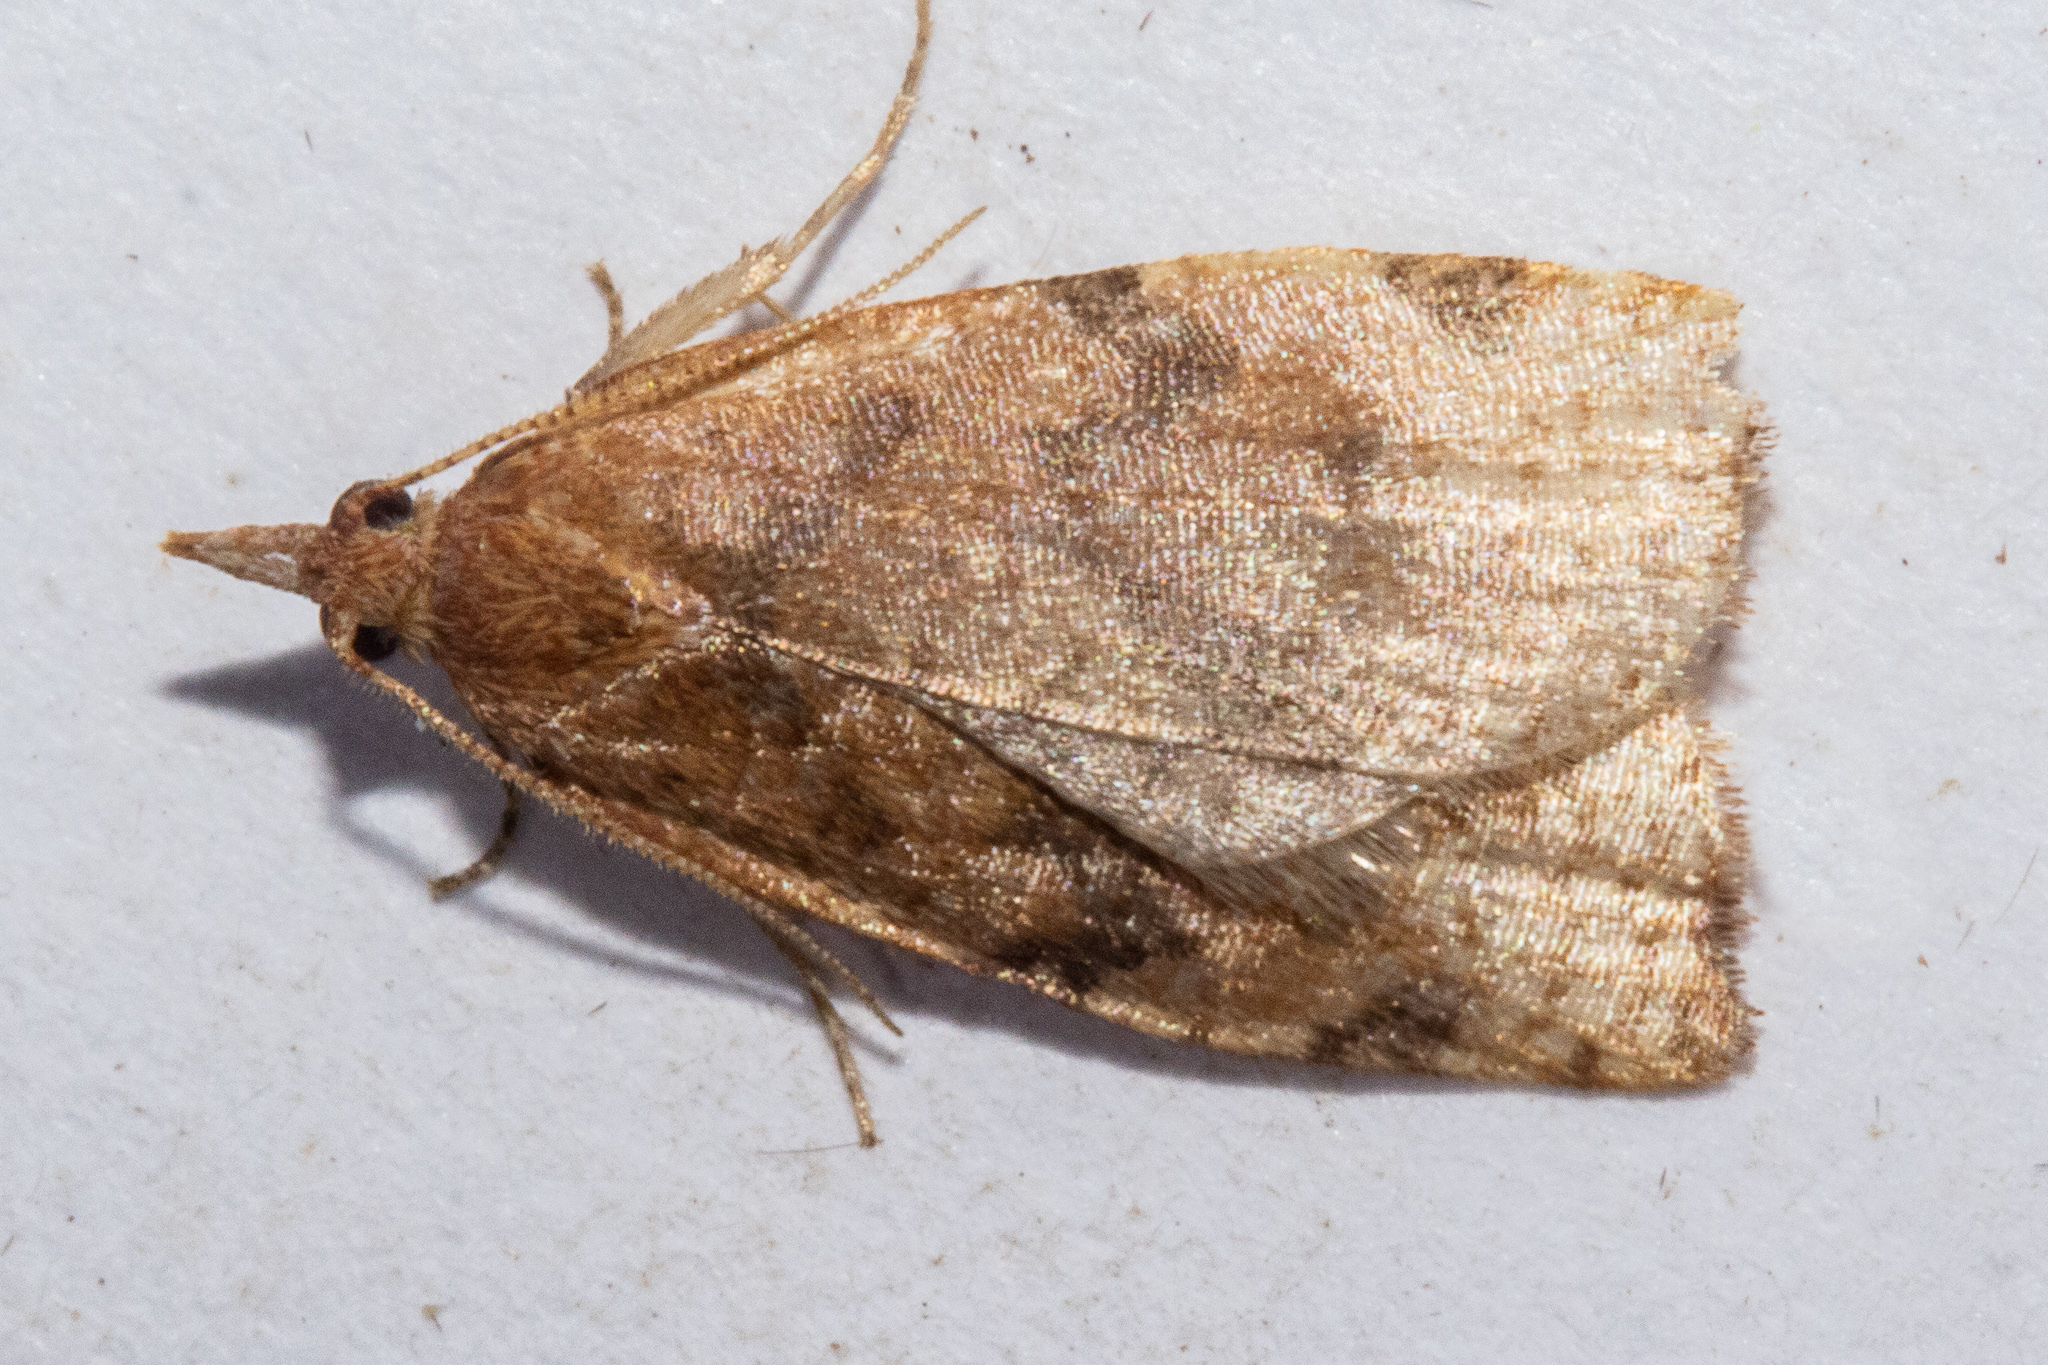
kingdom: Animalia
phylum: Arthropoda
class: Insecta
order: Lepidoptera
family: Tortricidae
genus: Apoctena
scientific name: Apoctena flavescens
